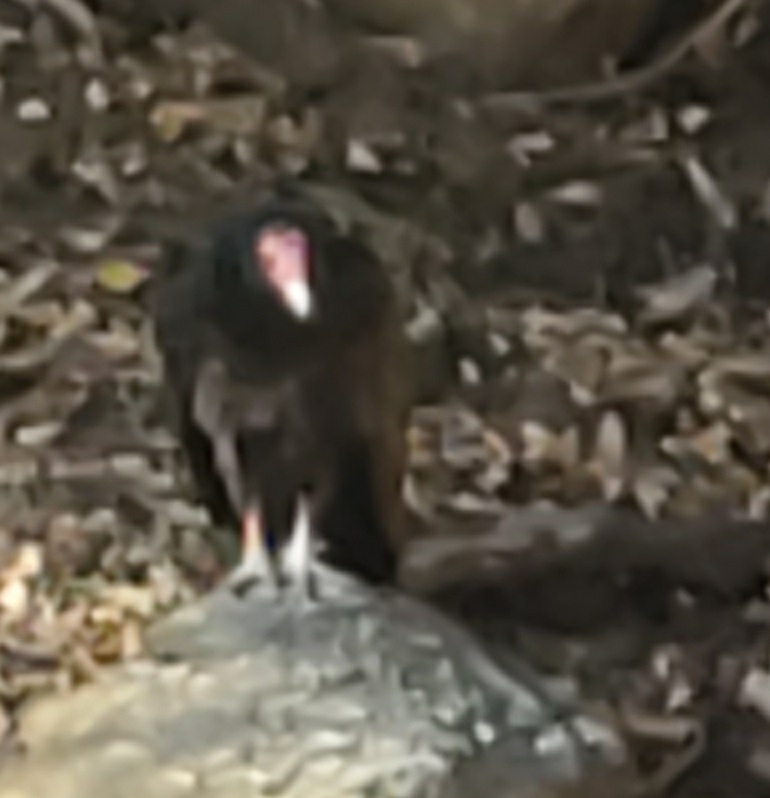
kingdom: Animalia
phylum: Chordata
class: Aves
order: Accipitriformes
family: Cathartidae
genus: Cathartes
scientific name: Cathartes aura
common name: Turkey vulture
